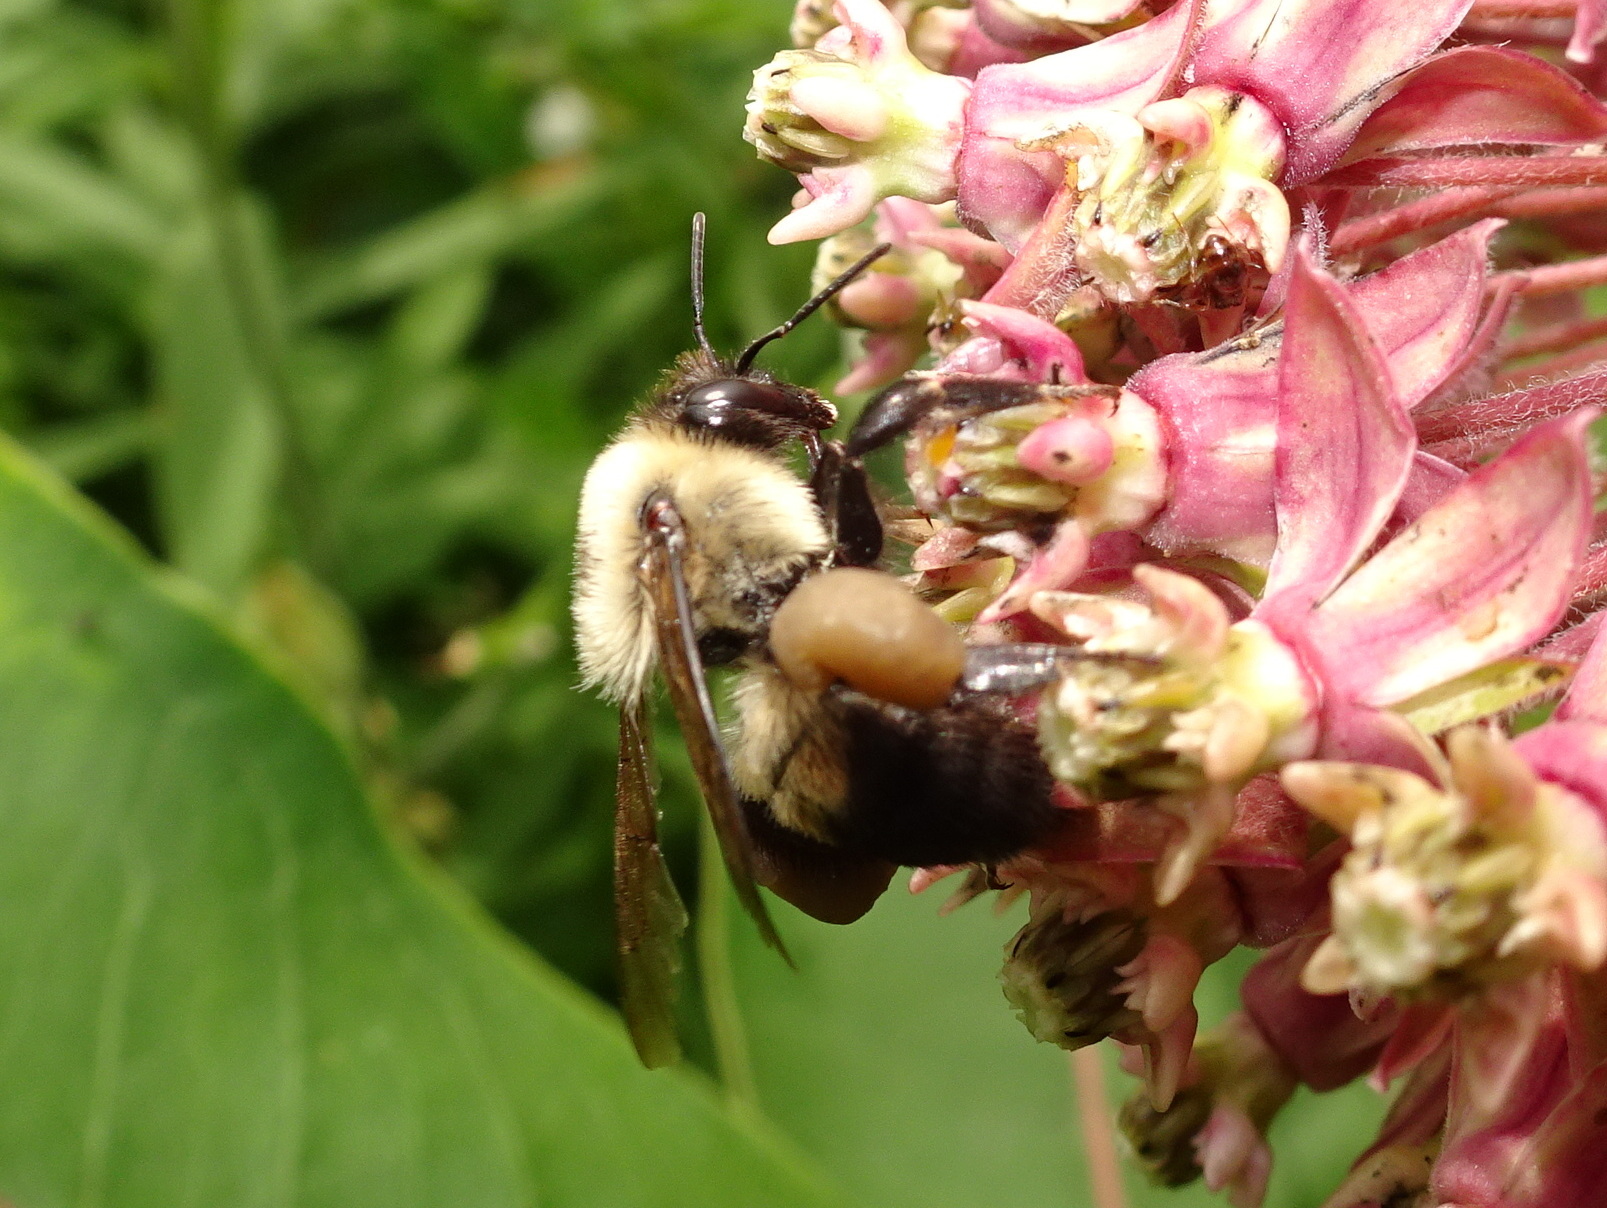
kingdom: Animalia
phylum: Arthropoda
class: Insecta
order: Hymenoptera
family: Apidae
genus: Bombus
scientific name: Bombus griseocollis
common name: Brown-belted bumble bee
